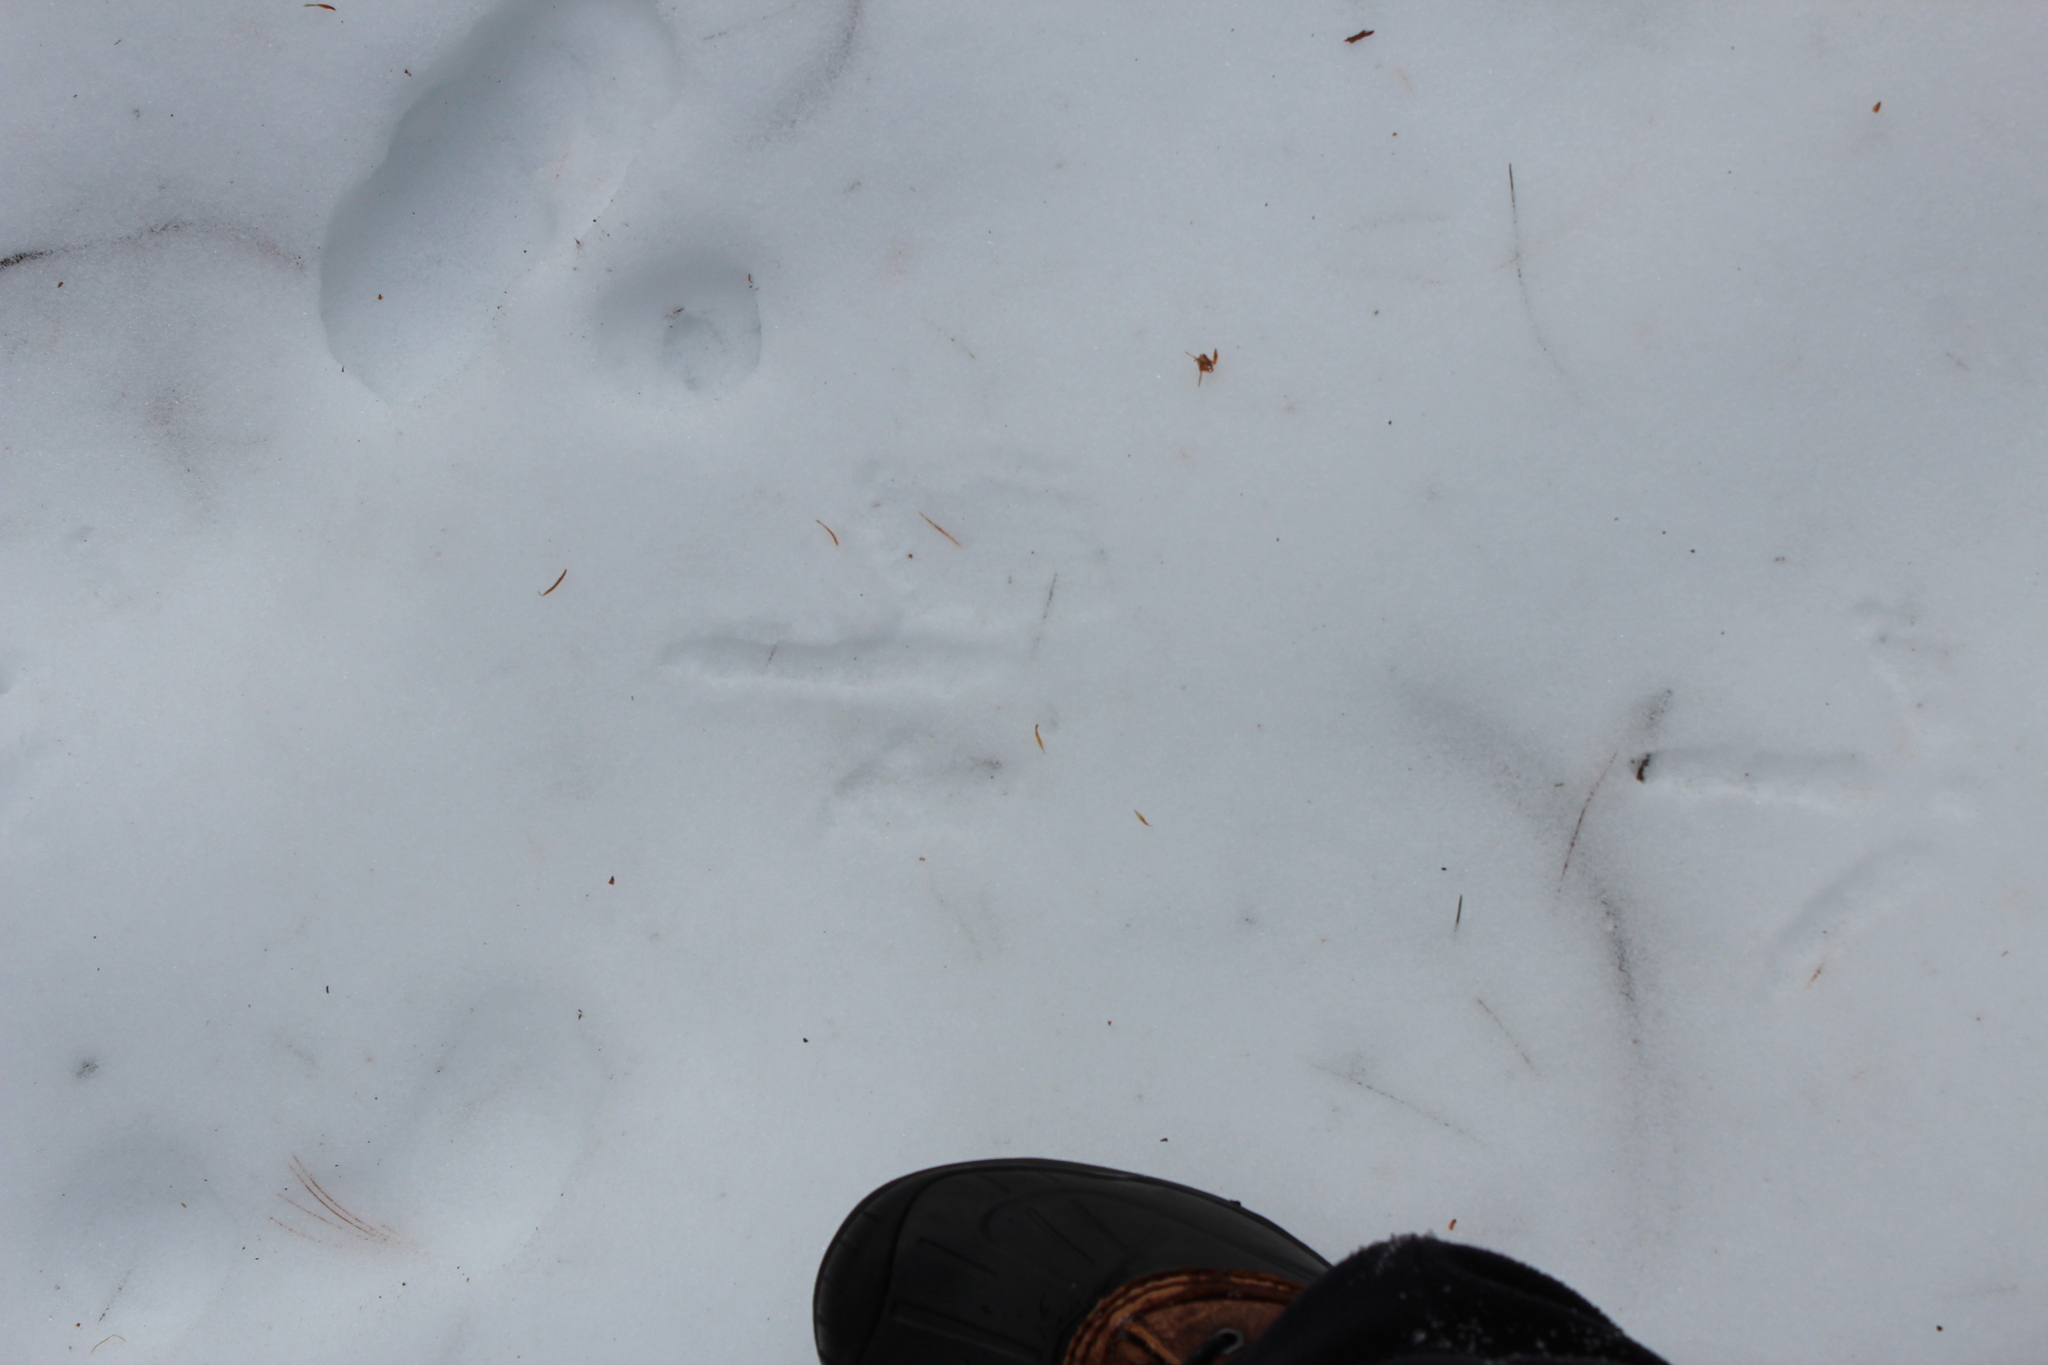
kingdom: Animalia
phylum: Chordata
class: Aves
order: Galliformes
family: Phasianidae
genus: Meleagris
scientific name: Meleagris gallopavo
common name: Wild turkey
